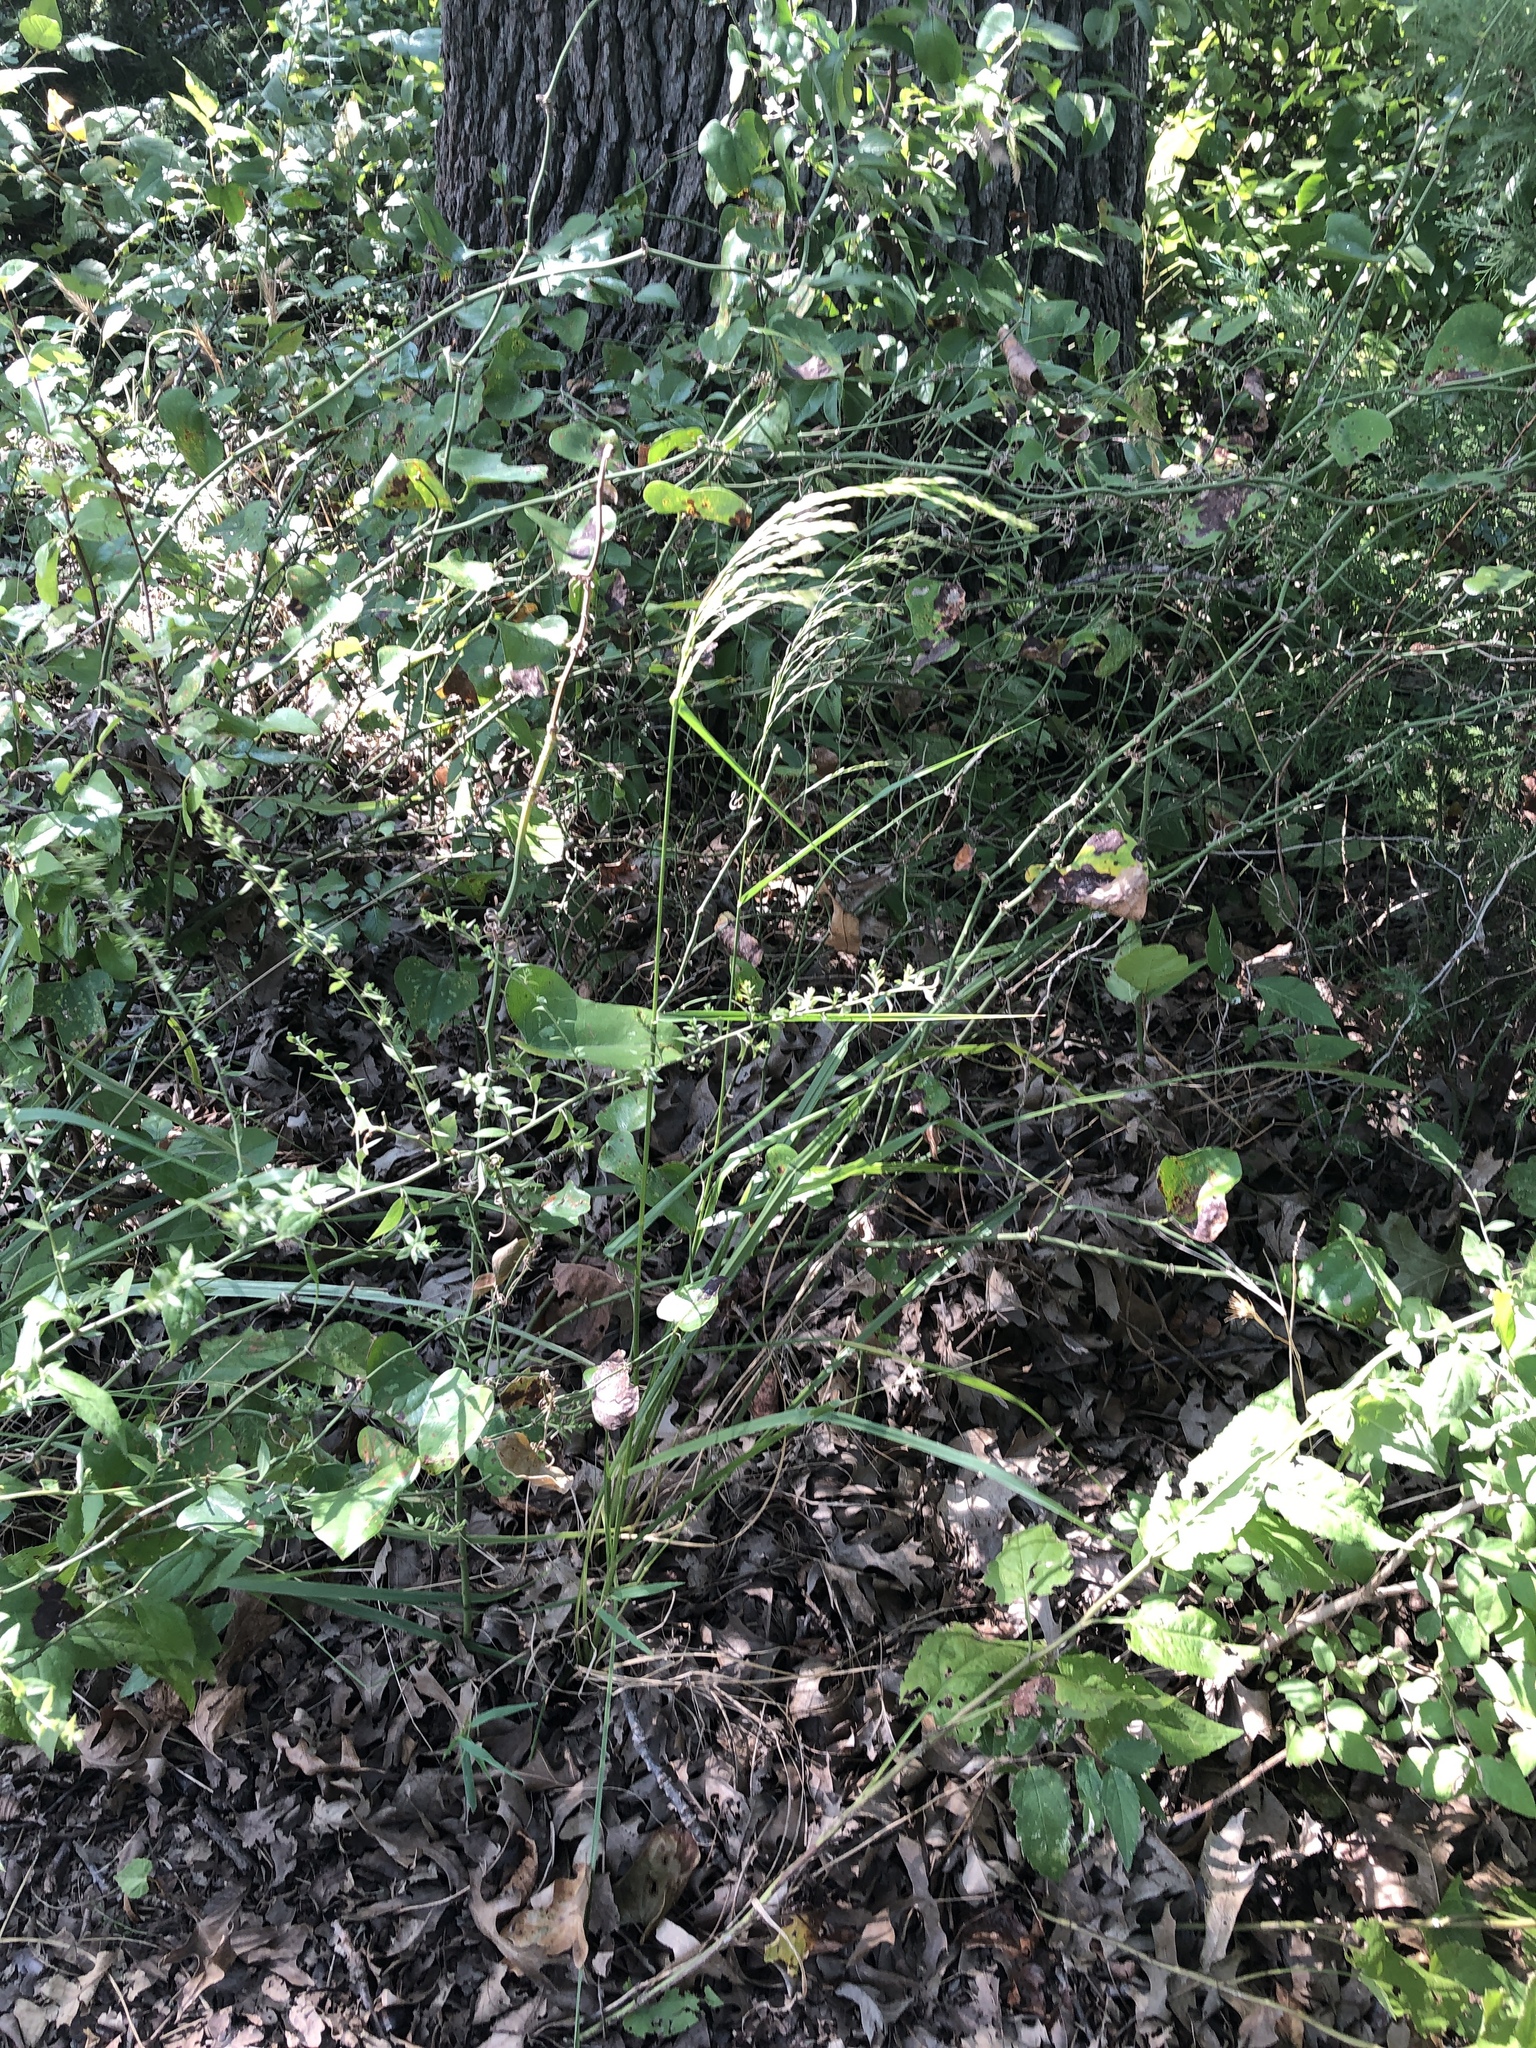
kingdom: Plantae
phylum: Tracheophyta
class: Liliopsida
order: Poales
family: Poaceae
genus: Tridens
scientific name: Tridens flavus
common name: Purpletop
